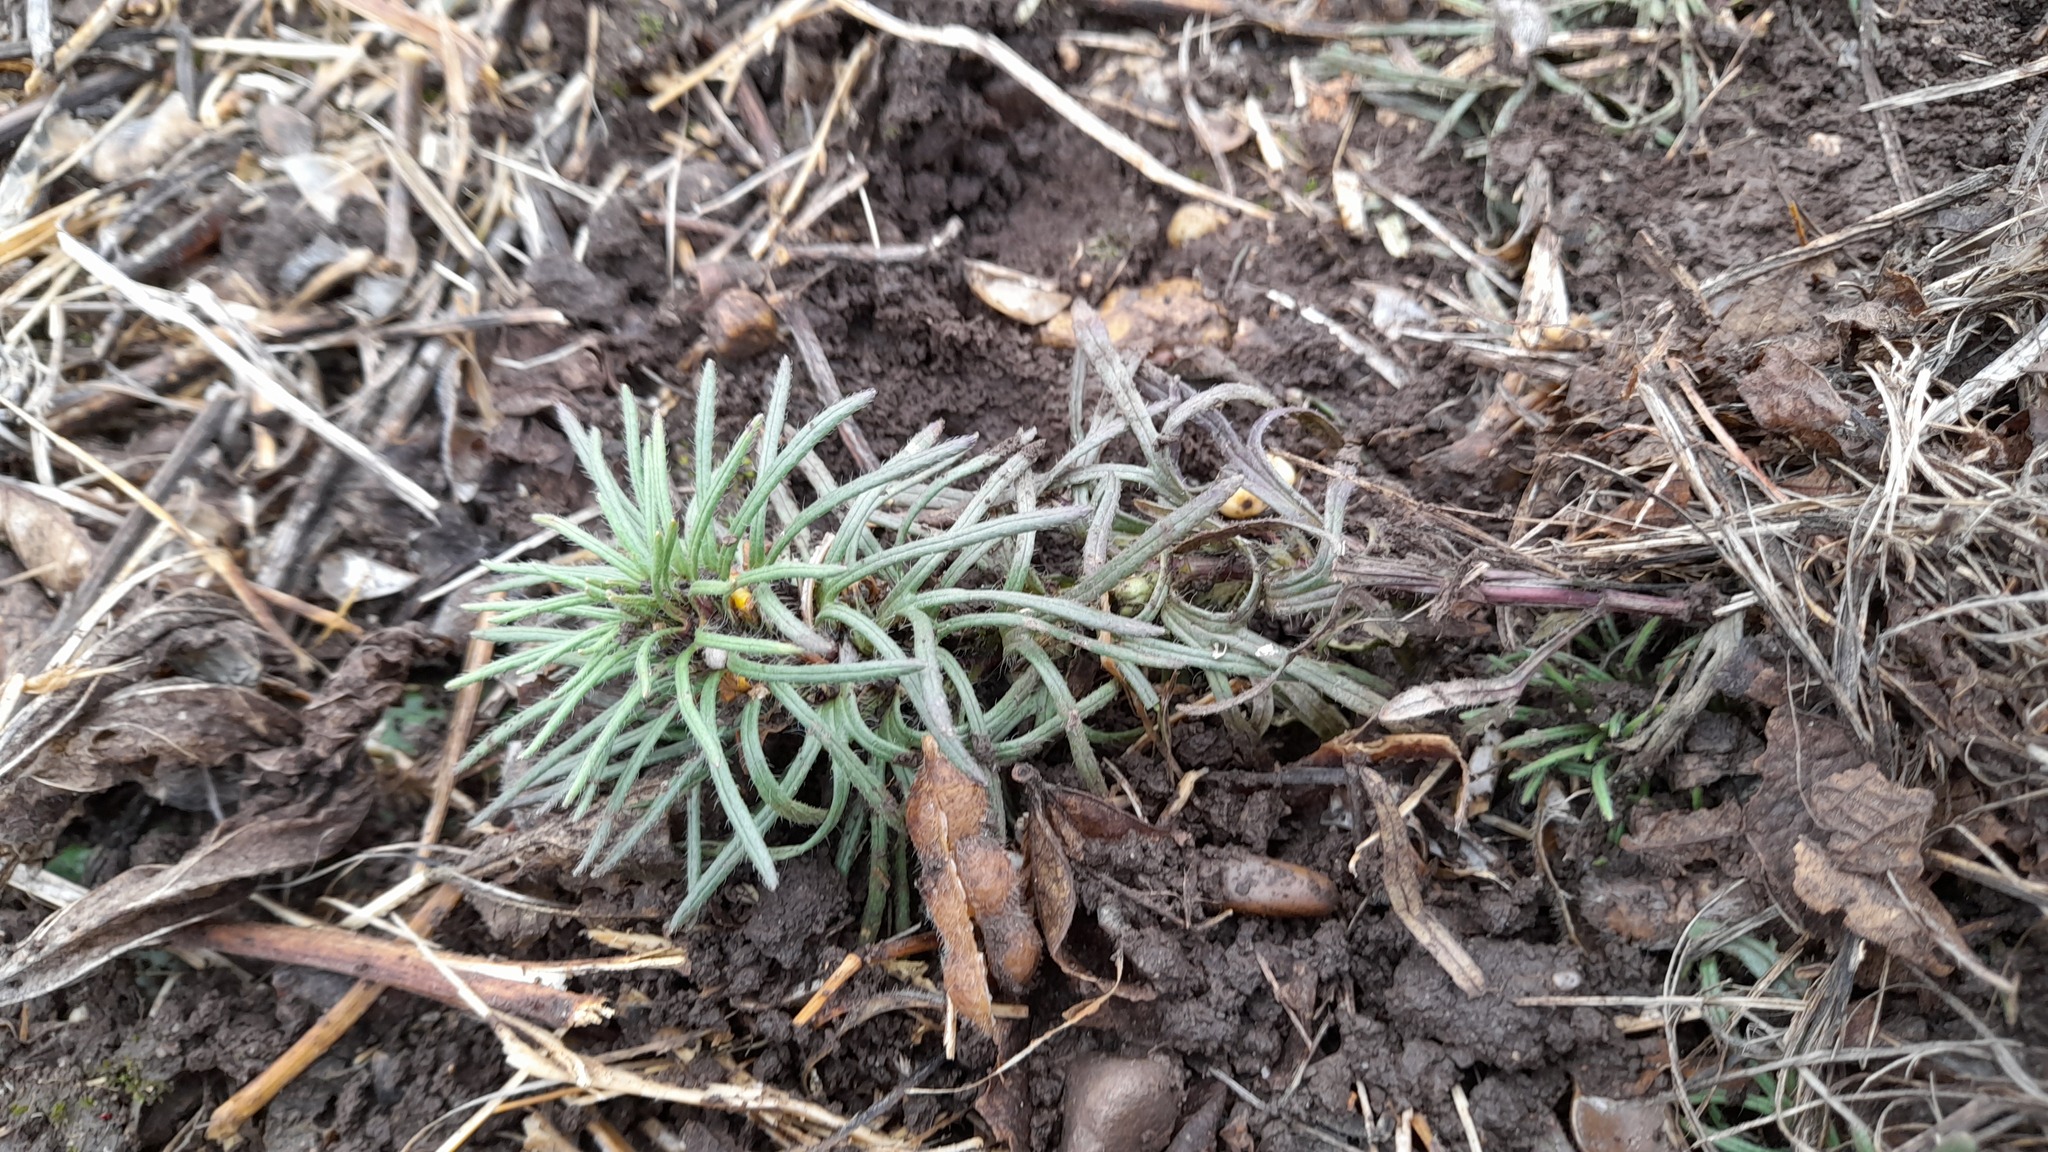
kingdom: Plantae
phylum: Tracheophyta
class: Magnoliopsida
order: Lamiales
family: Lamiaceae
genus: Ajuga
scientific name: Ajuga chamaepitys
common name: Ground-pine
